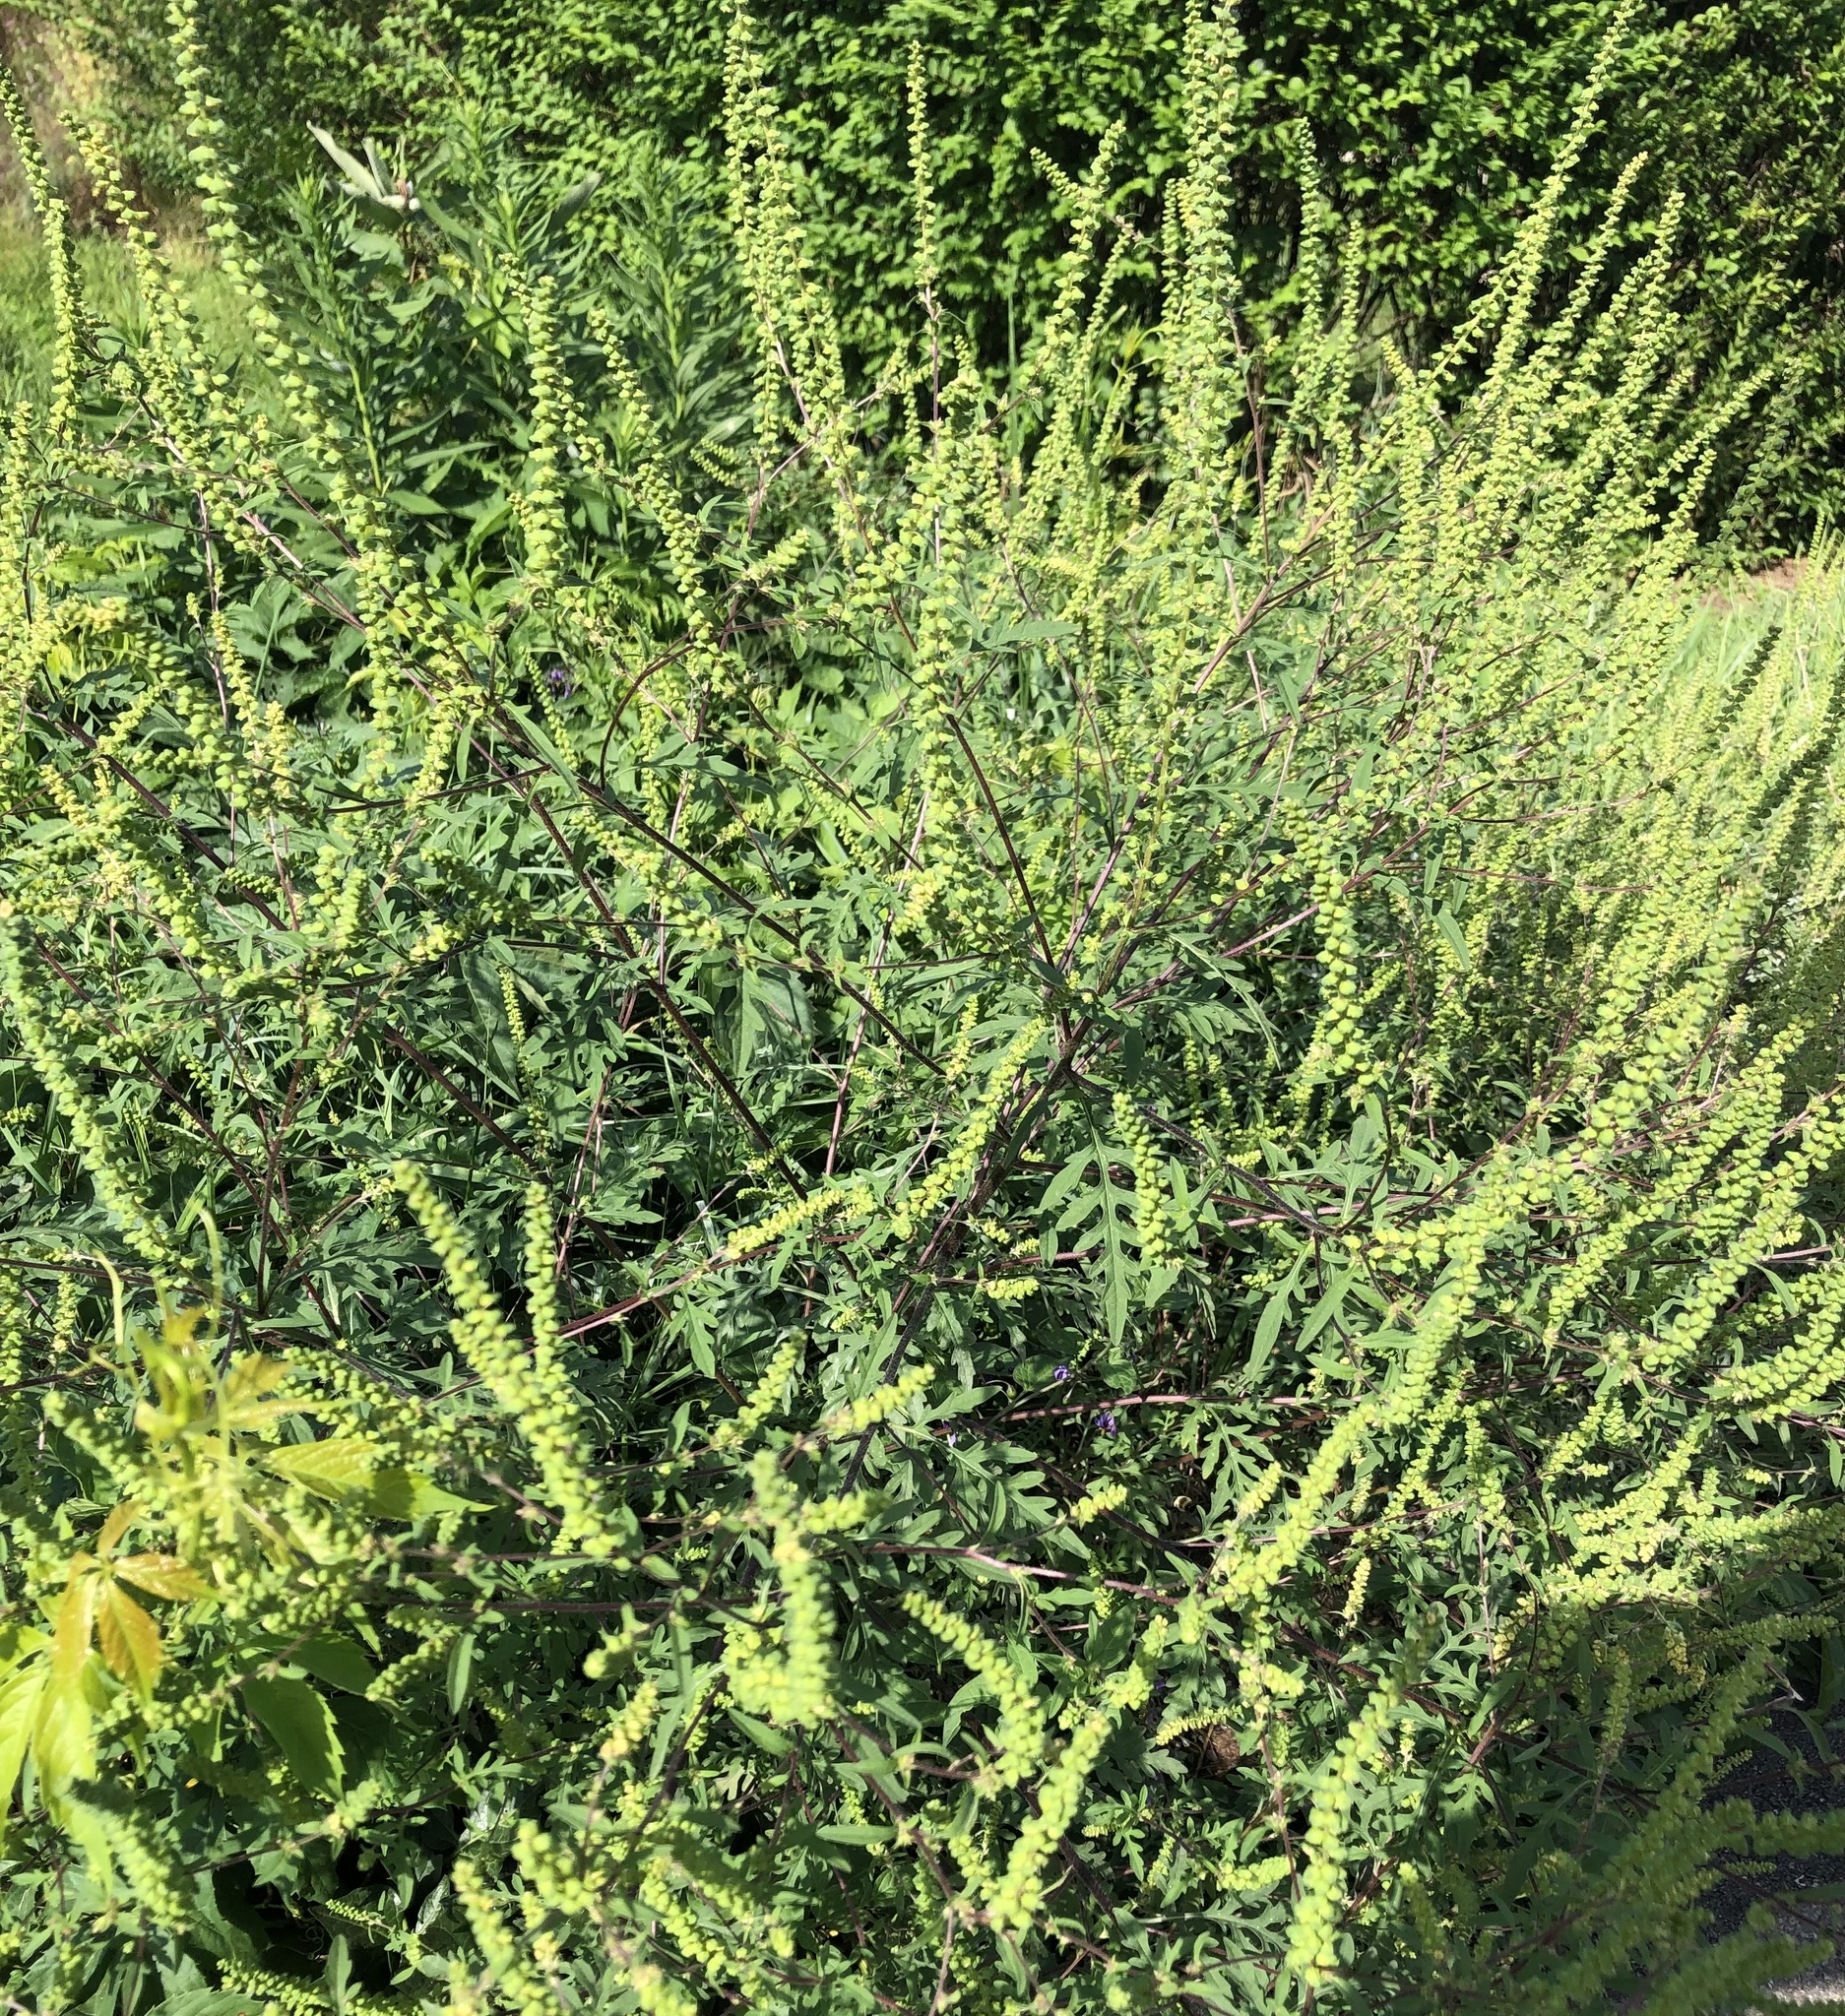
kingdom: Plantae
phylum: Tracheophyta
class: Magnoliopsida
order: Asterales
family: Asteraceae
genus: Ambrosia
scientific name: Ambrosia artemisiifolia
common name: Annual ragweed
